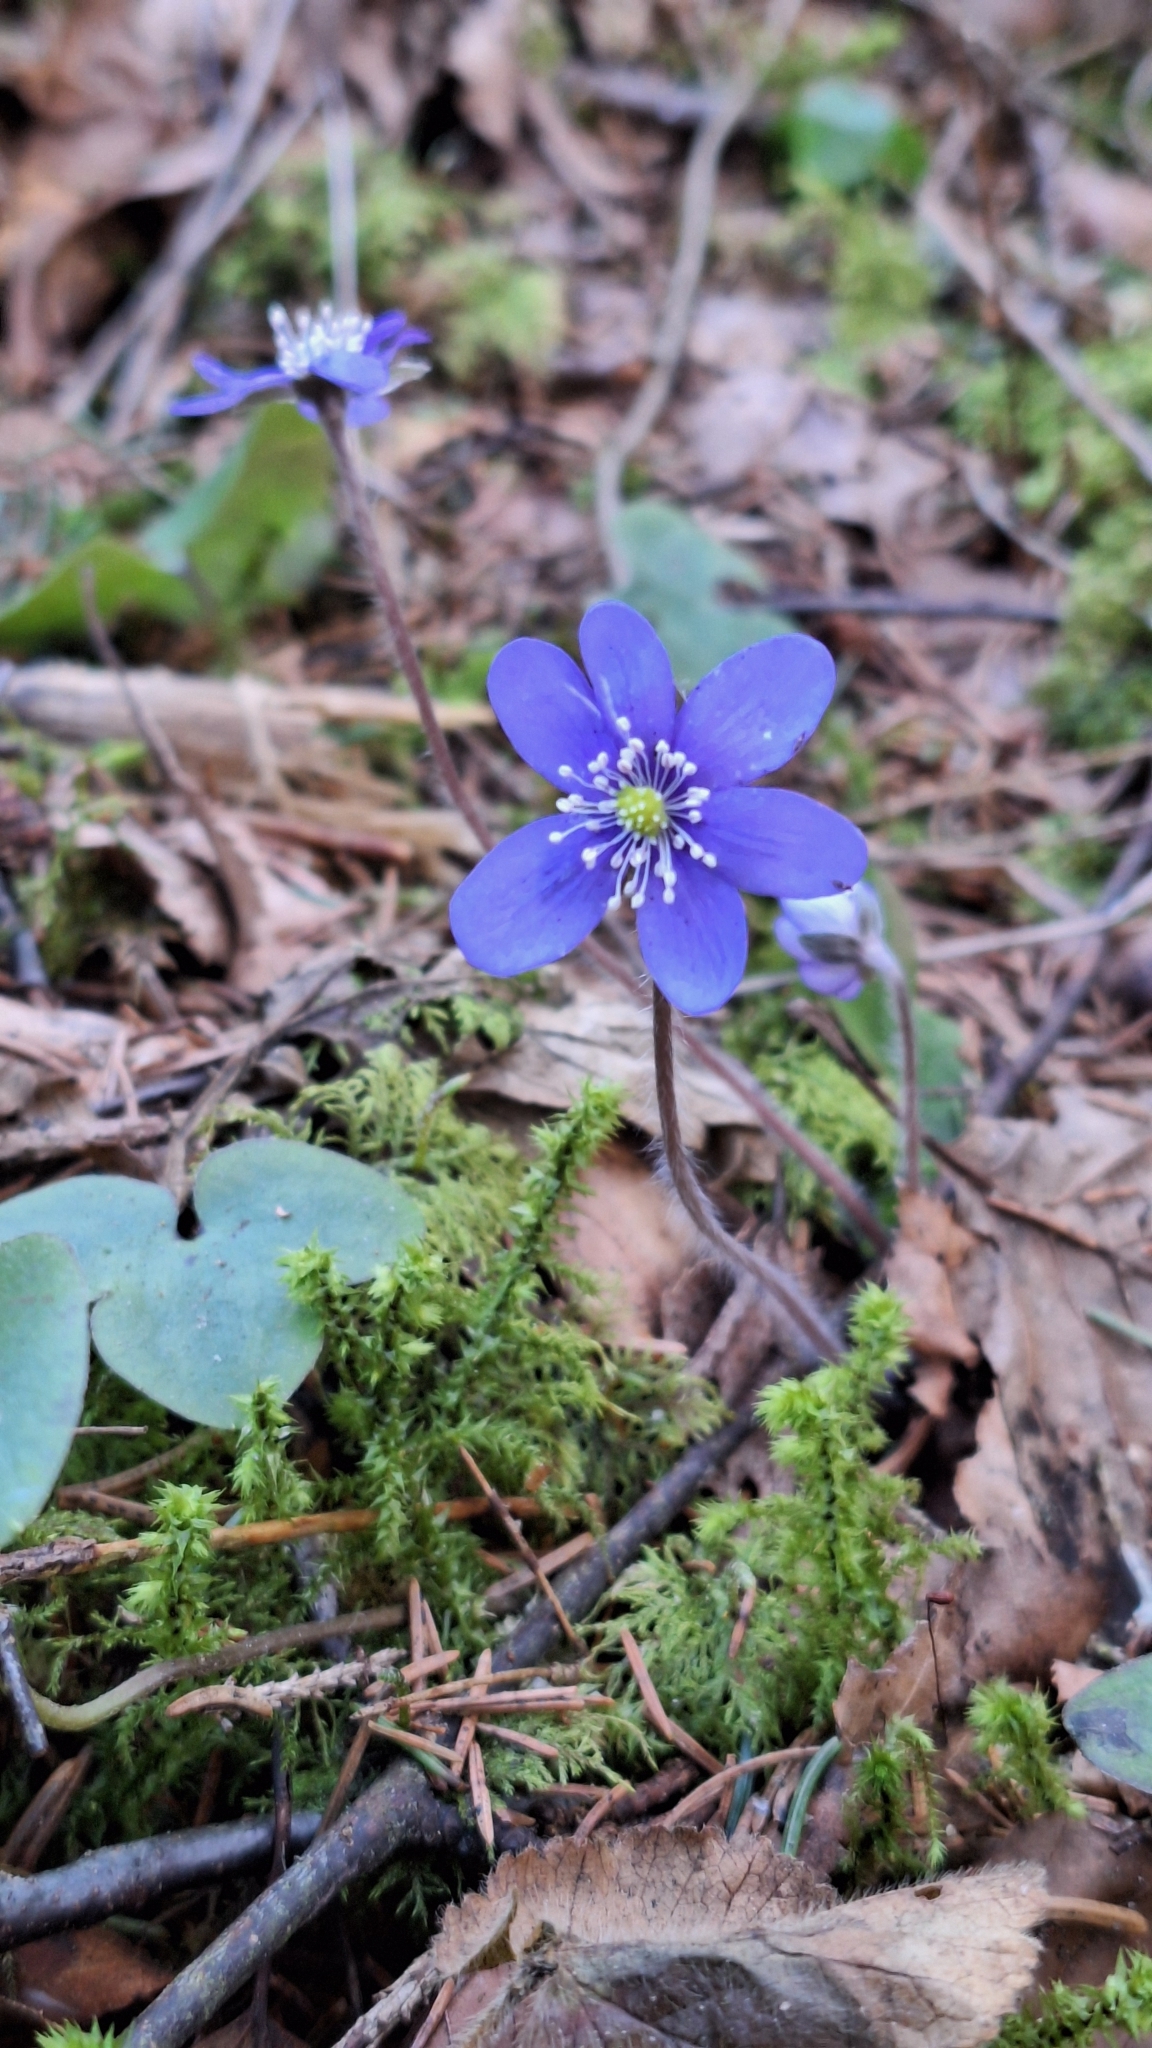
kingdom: Plantae
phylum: Tracheophyta
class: Magnoliopsida
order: Ranunculales
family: Ranunculaceae
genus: Hepatica
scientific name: Hepatica nobilis
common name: Liverleaf
